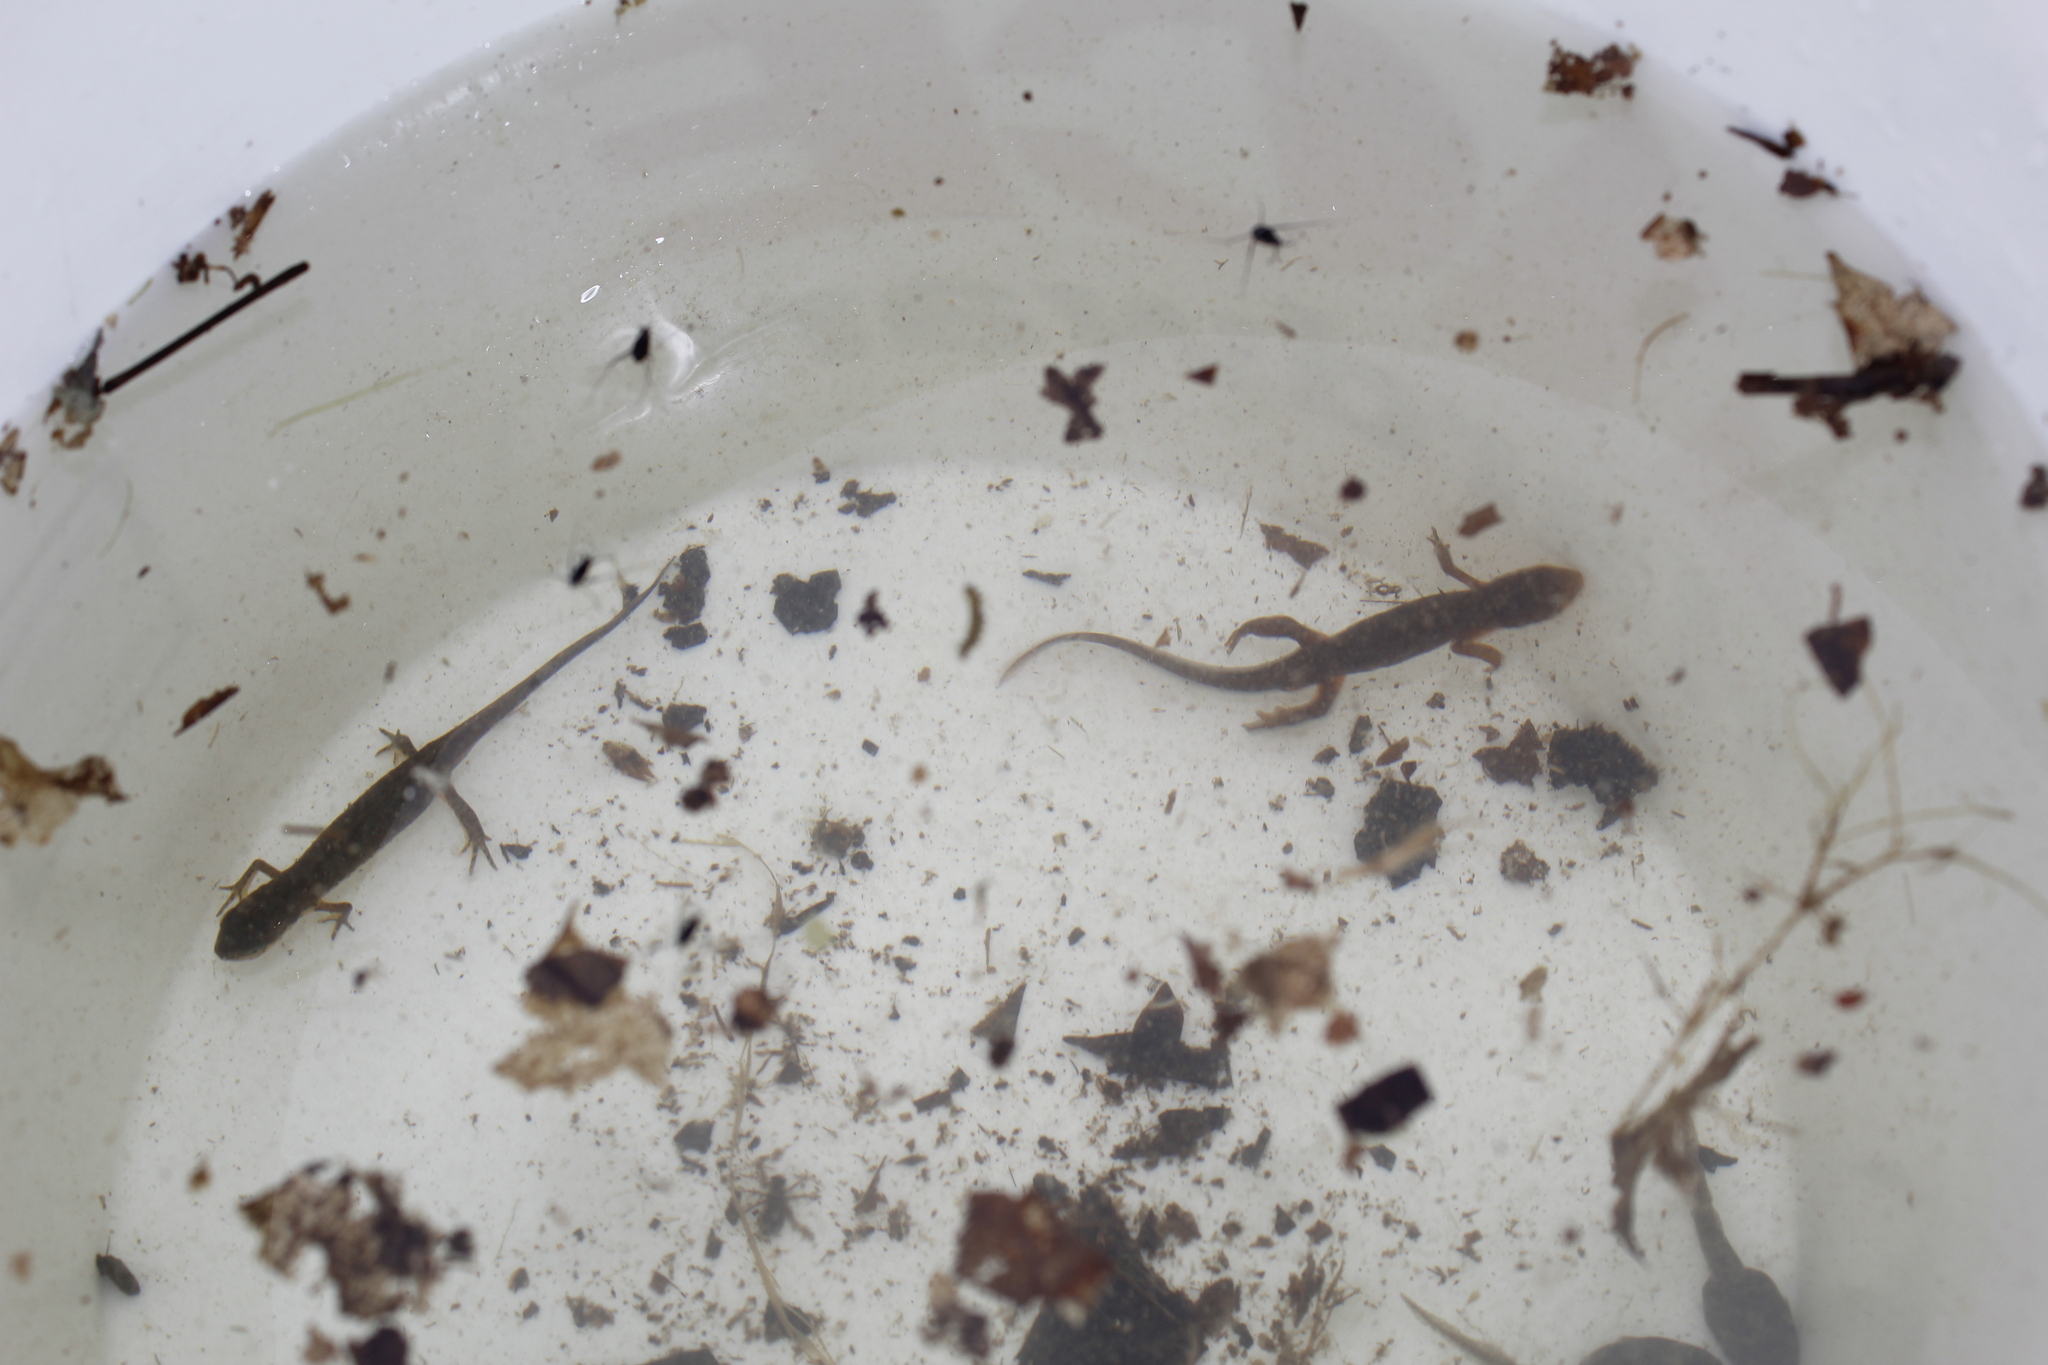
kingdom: Animalia
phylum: Chordata
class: Amphibia
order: Caudata
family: Salamandridae
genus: Notophthalmus
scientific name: Notophthalmus viridescens
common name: Eastern newt
